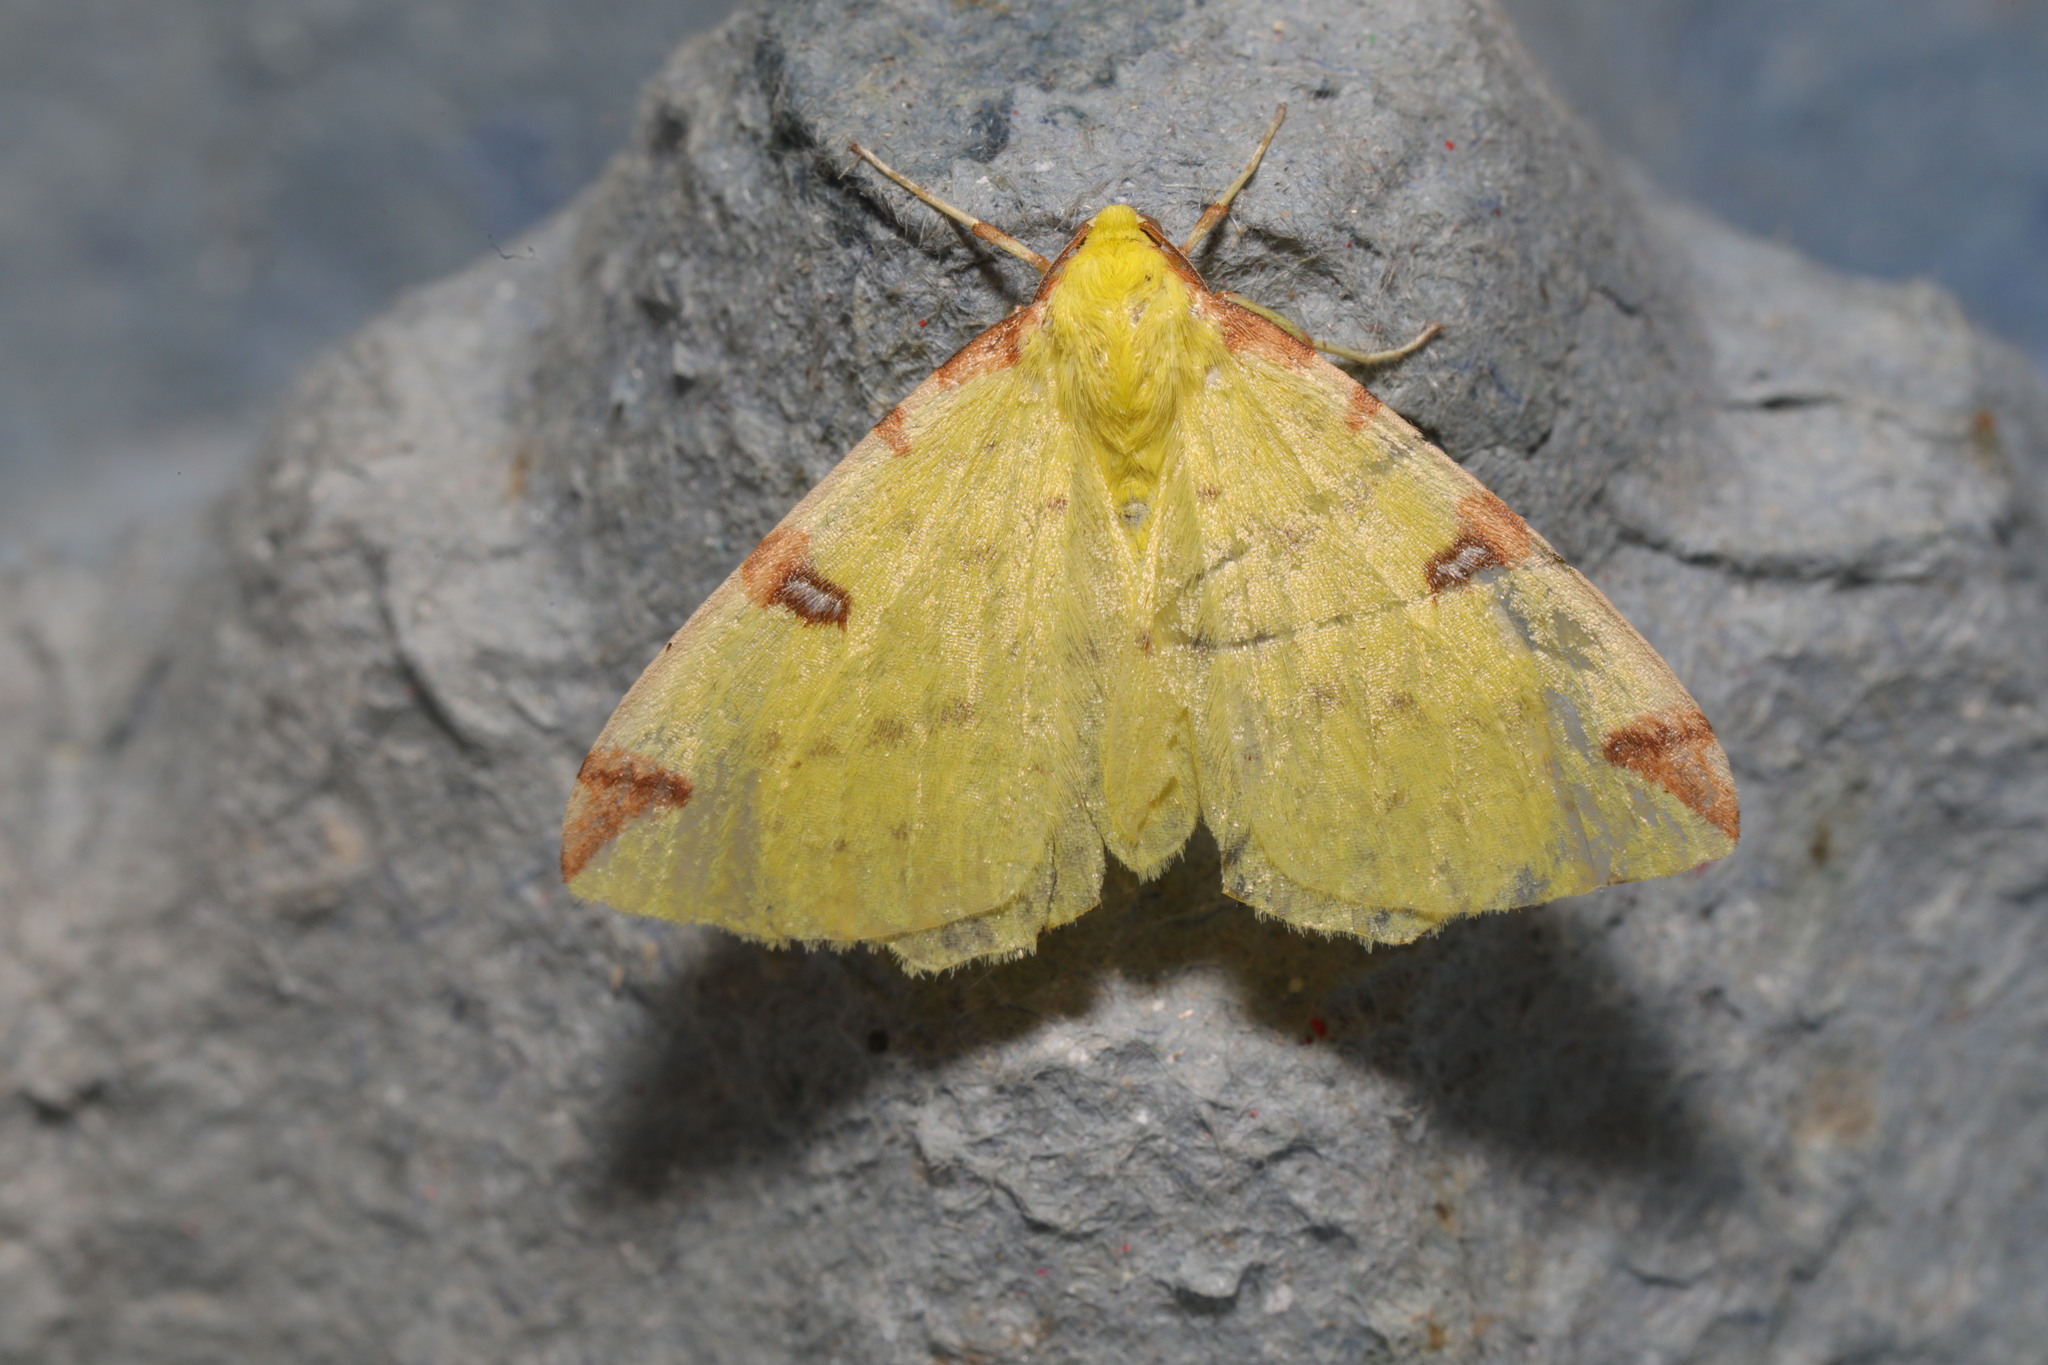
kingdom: Animalia
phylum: Arthropoda
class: Insecta
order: Lepidoptera
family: Geometridae
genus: Opisthograptis
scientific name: Opisthograptis luteolata
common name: Brimstone moth
